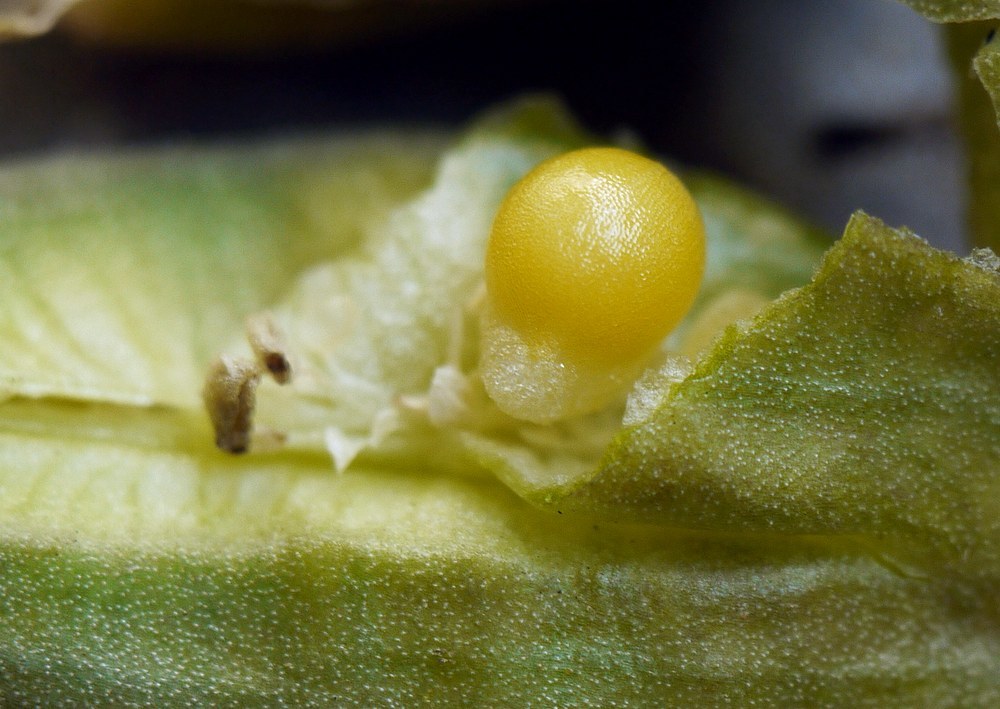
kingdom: Plantae
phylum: Tracheophyta
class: Liliopsida
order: Liliales
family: Colchicaceae
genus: Colchicum
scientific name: Colchicum bulbocodium
